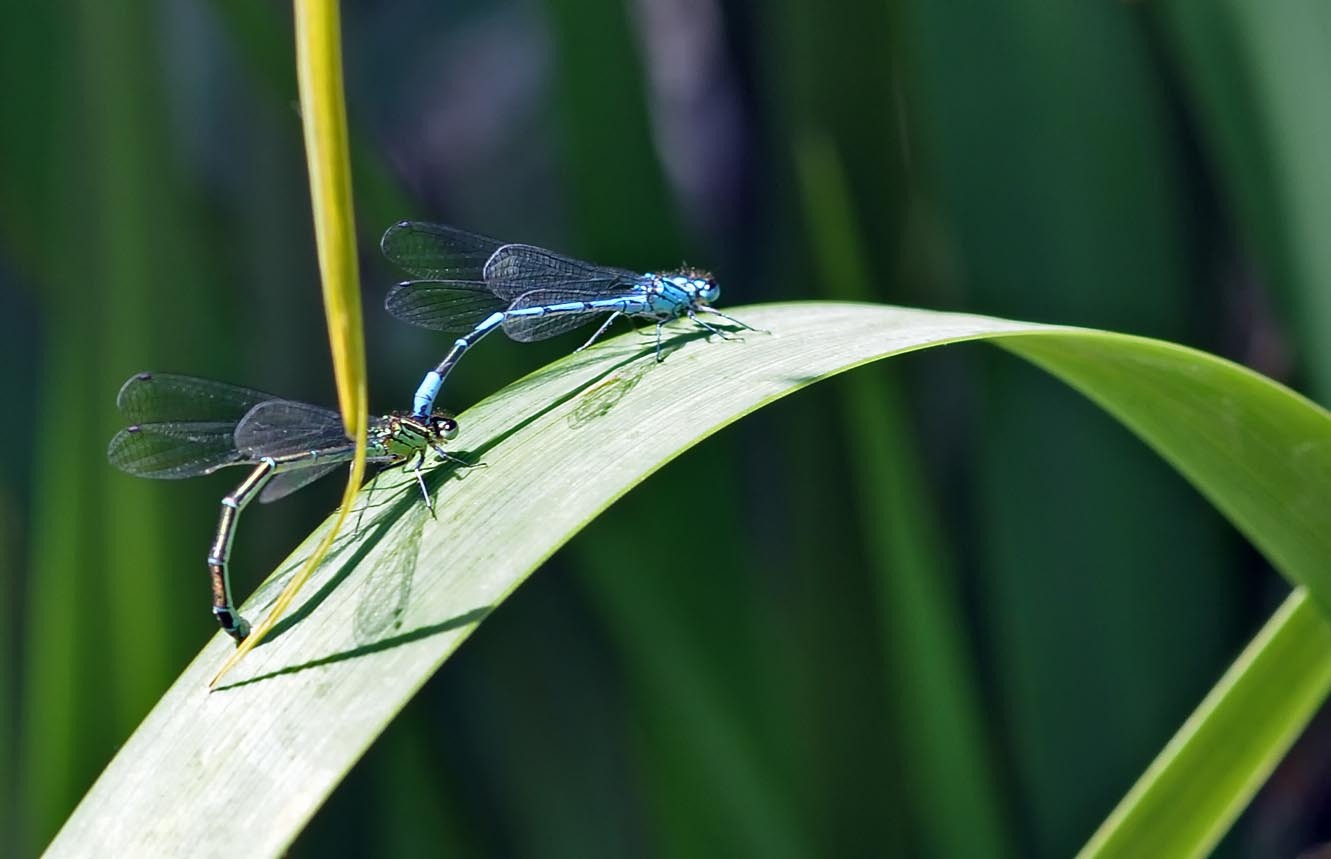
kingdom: Animalia
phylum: Arthropoda
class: Insecta
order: Odonata
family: Coenagrionidae
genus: Coenagrion
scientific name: Coenagrion puella
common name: Azure damselfly
